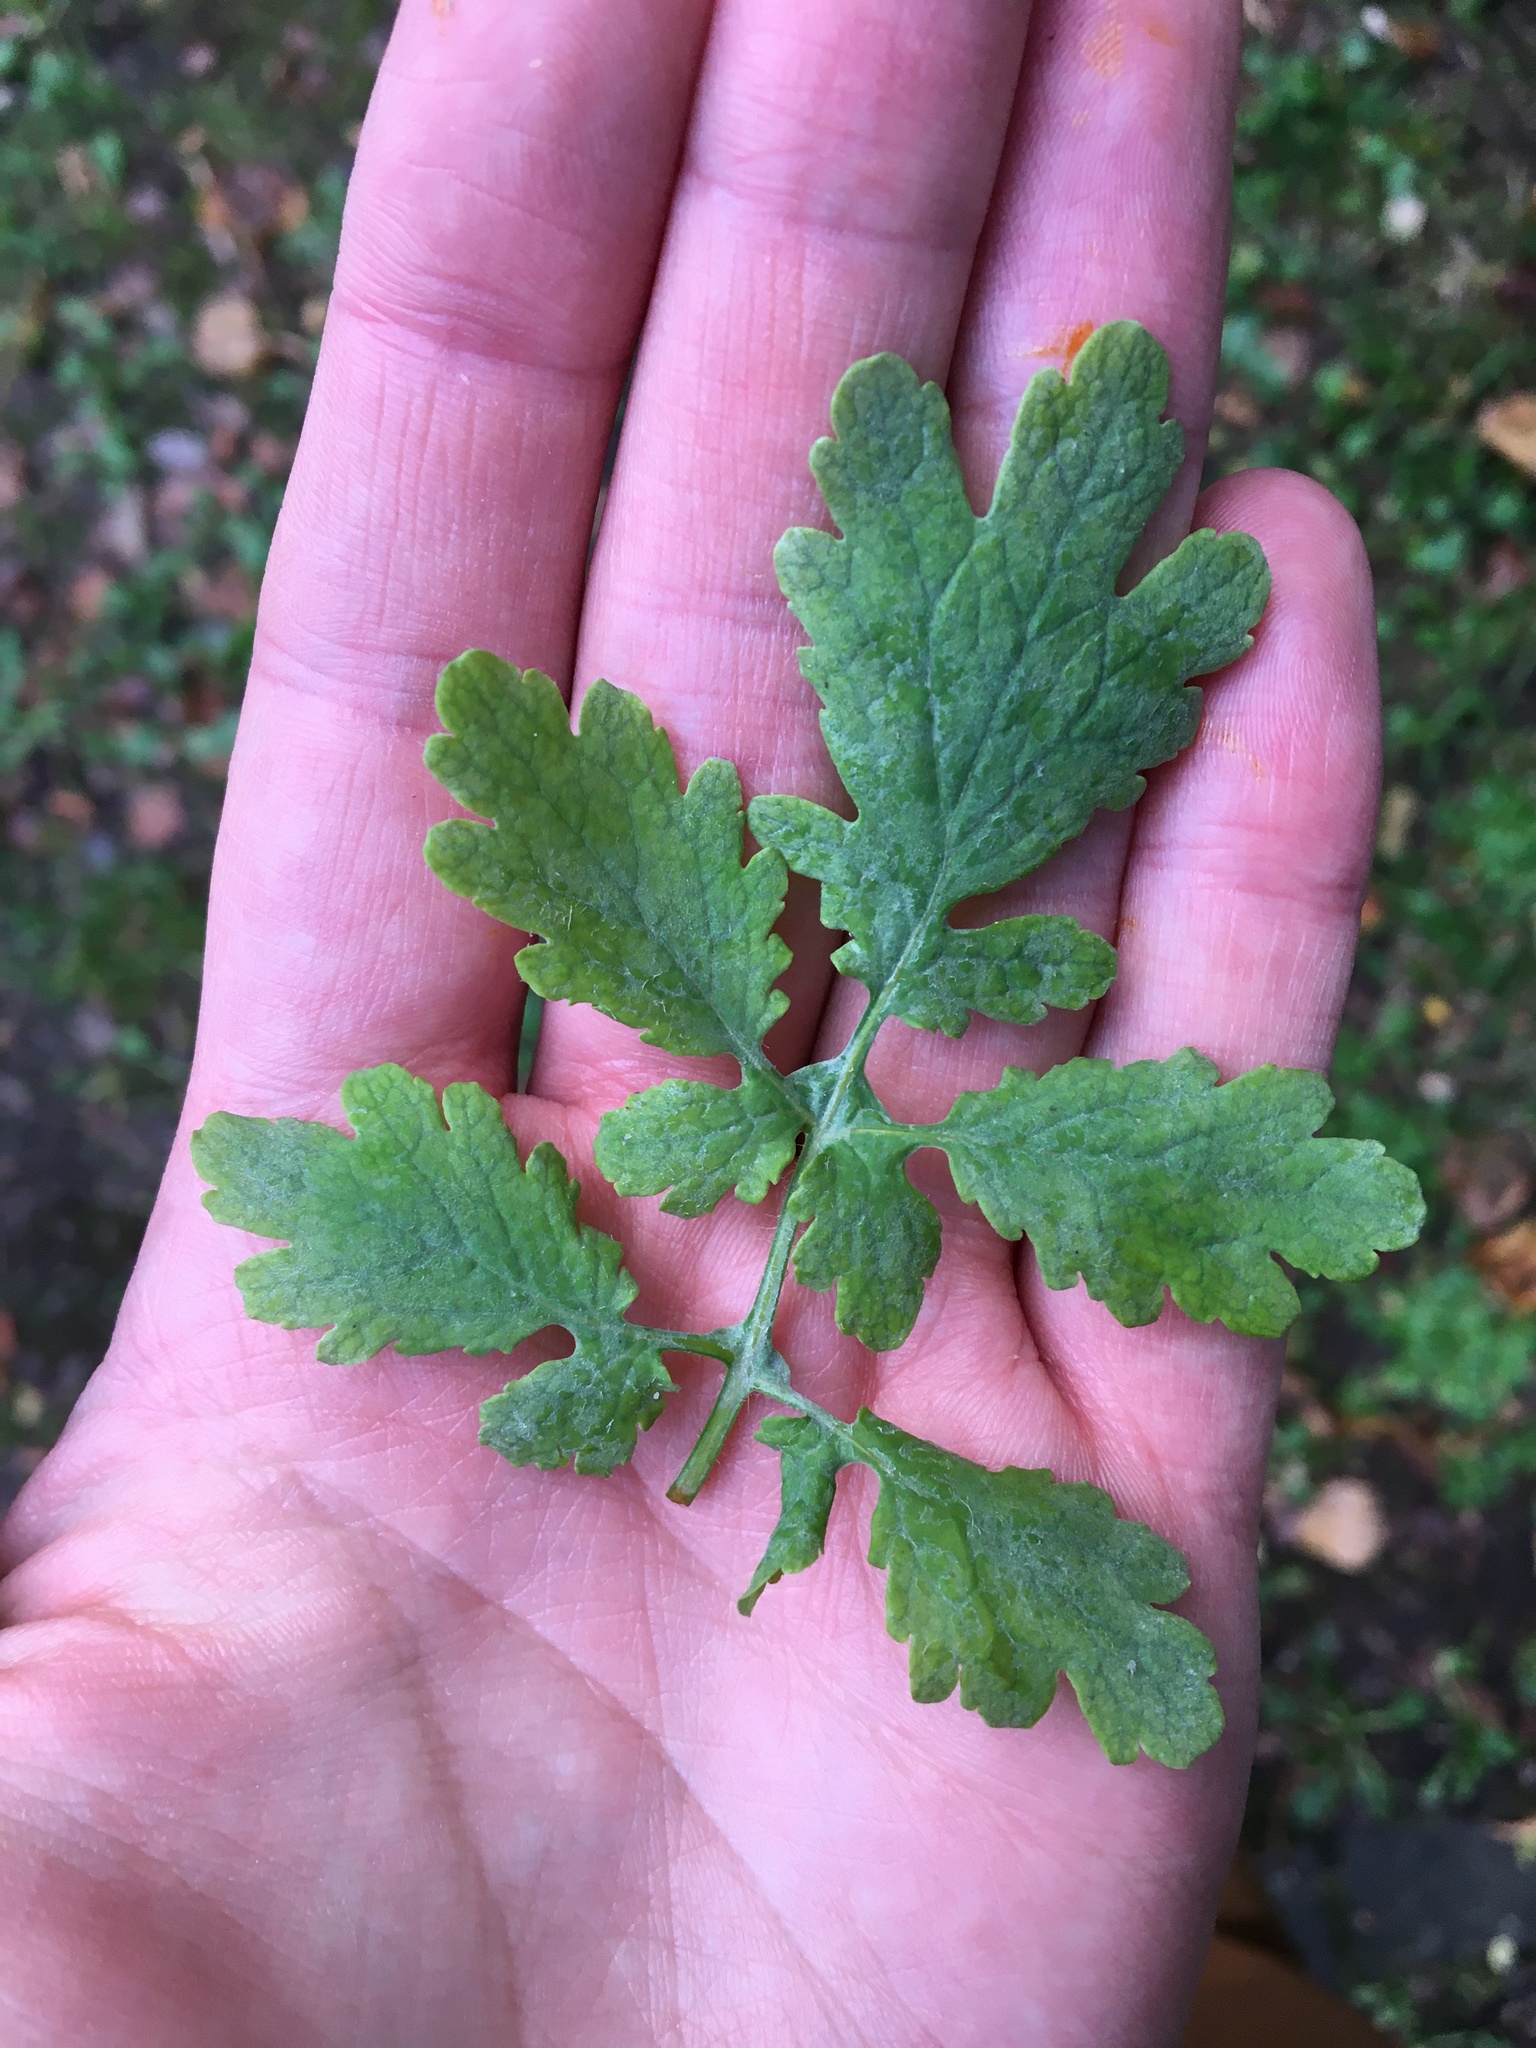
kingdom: Plantae
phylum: Tracheophyta
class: Magnoliopsida
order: Ranunculales
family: Papaveraceae
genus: Chelidonium
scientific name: Chelidonium majus
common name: Greater celandine
